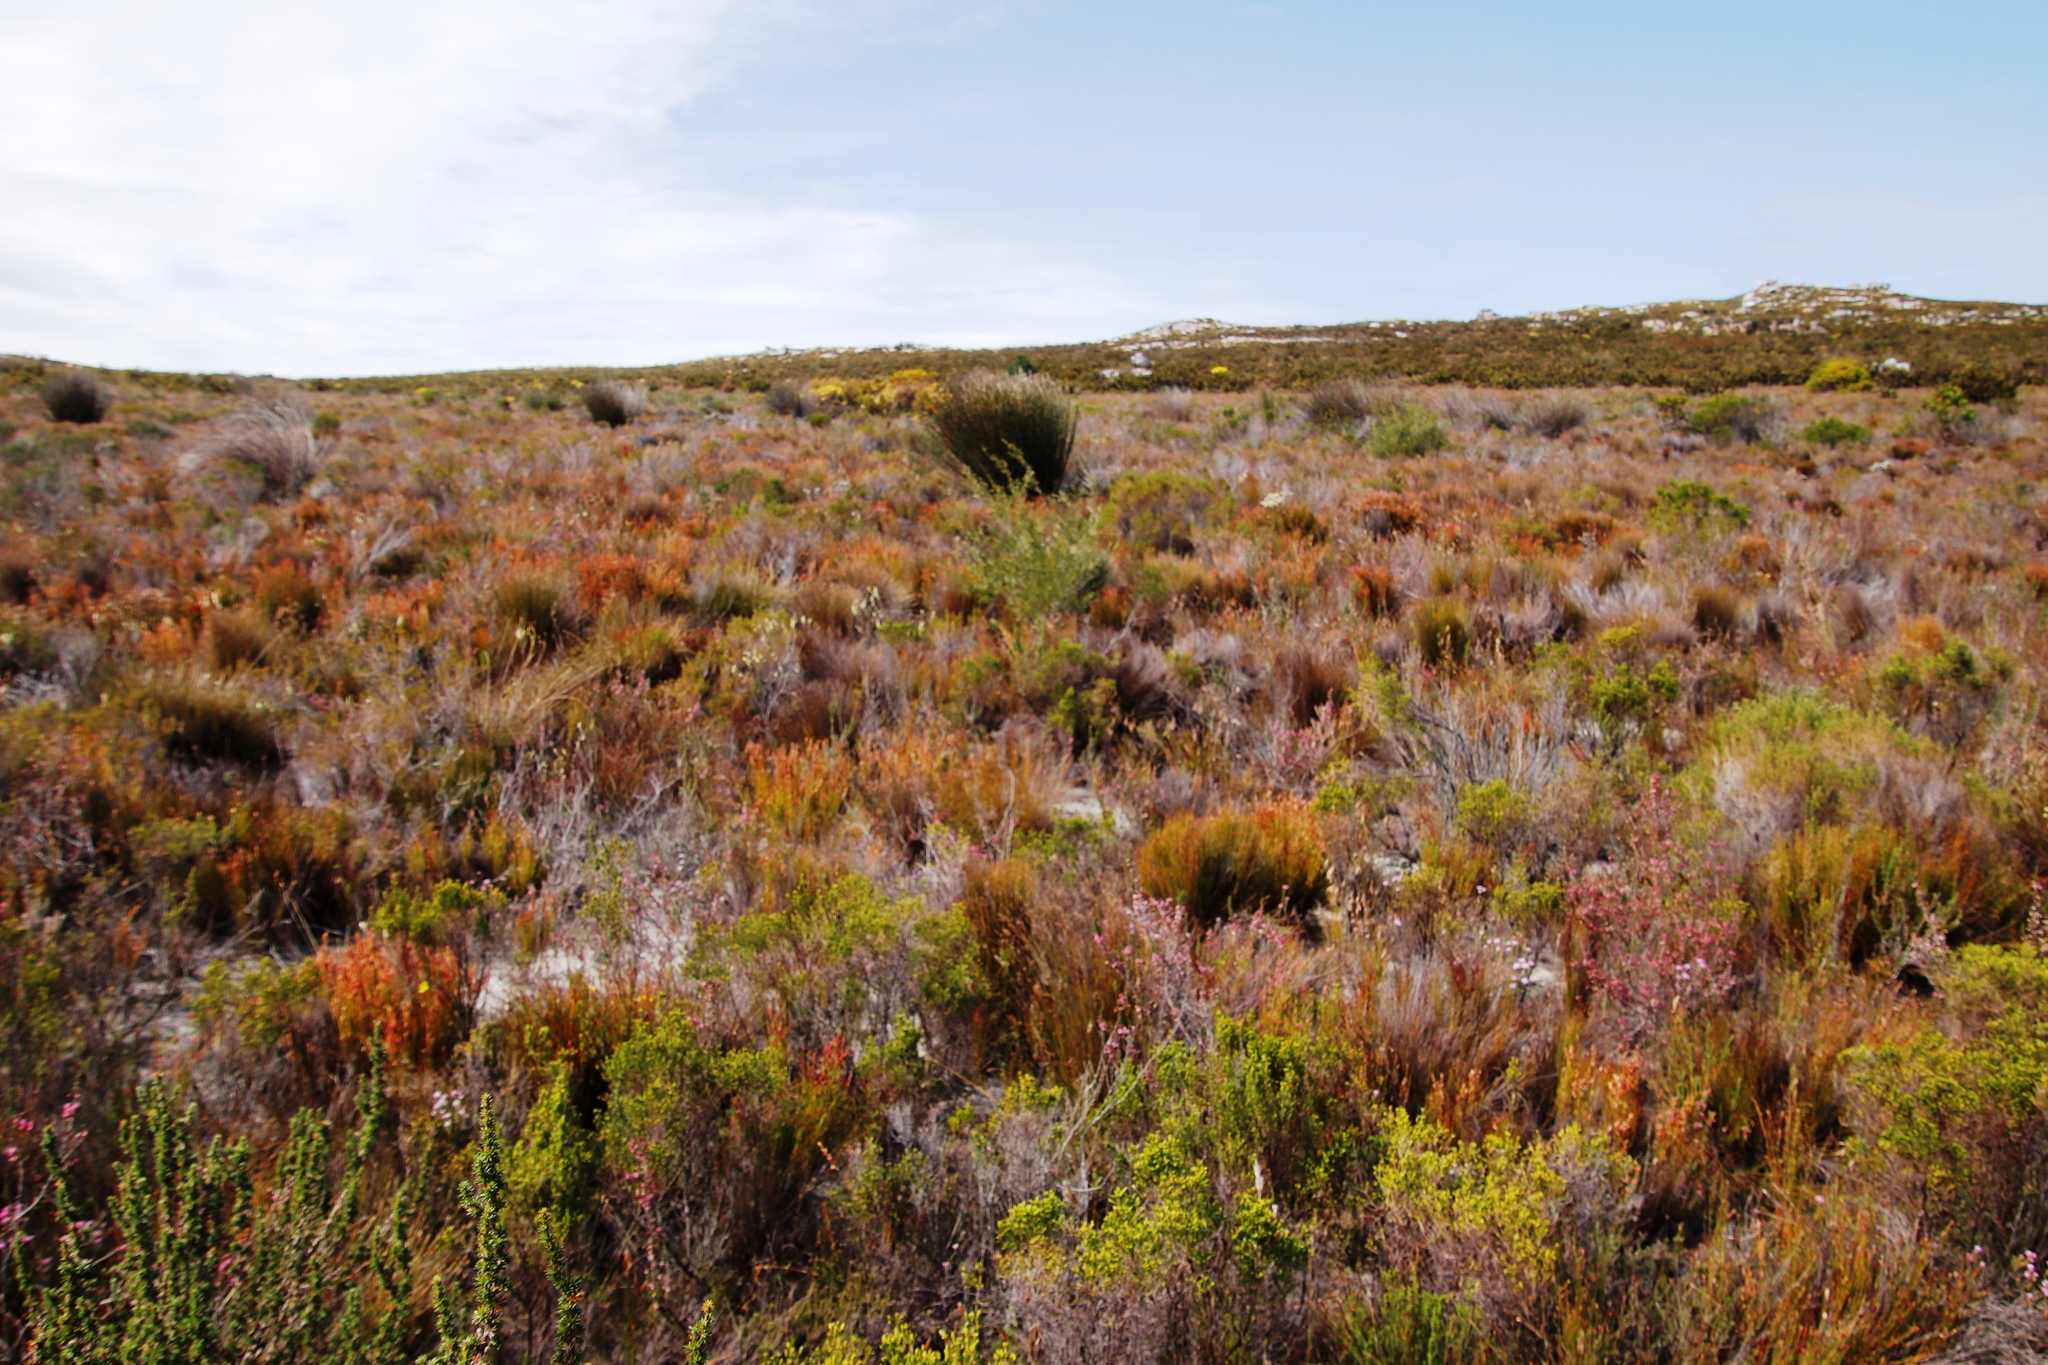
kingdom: Plantae
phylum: Tracheophyta
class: Magnoliopsida
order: Myrtales
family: Myrtaceae
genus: Leptospermum
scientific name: Leptospermum laevigatum
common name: Australian teatree
